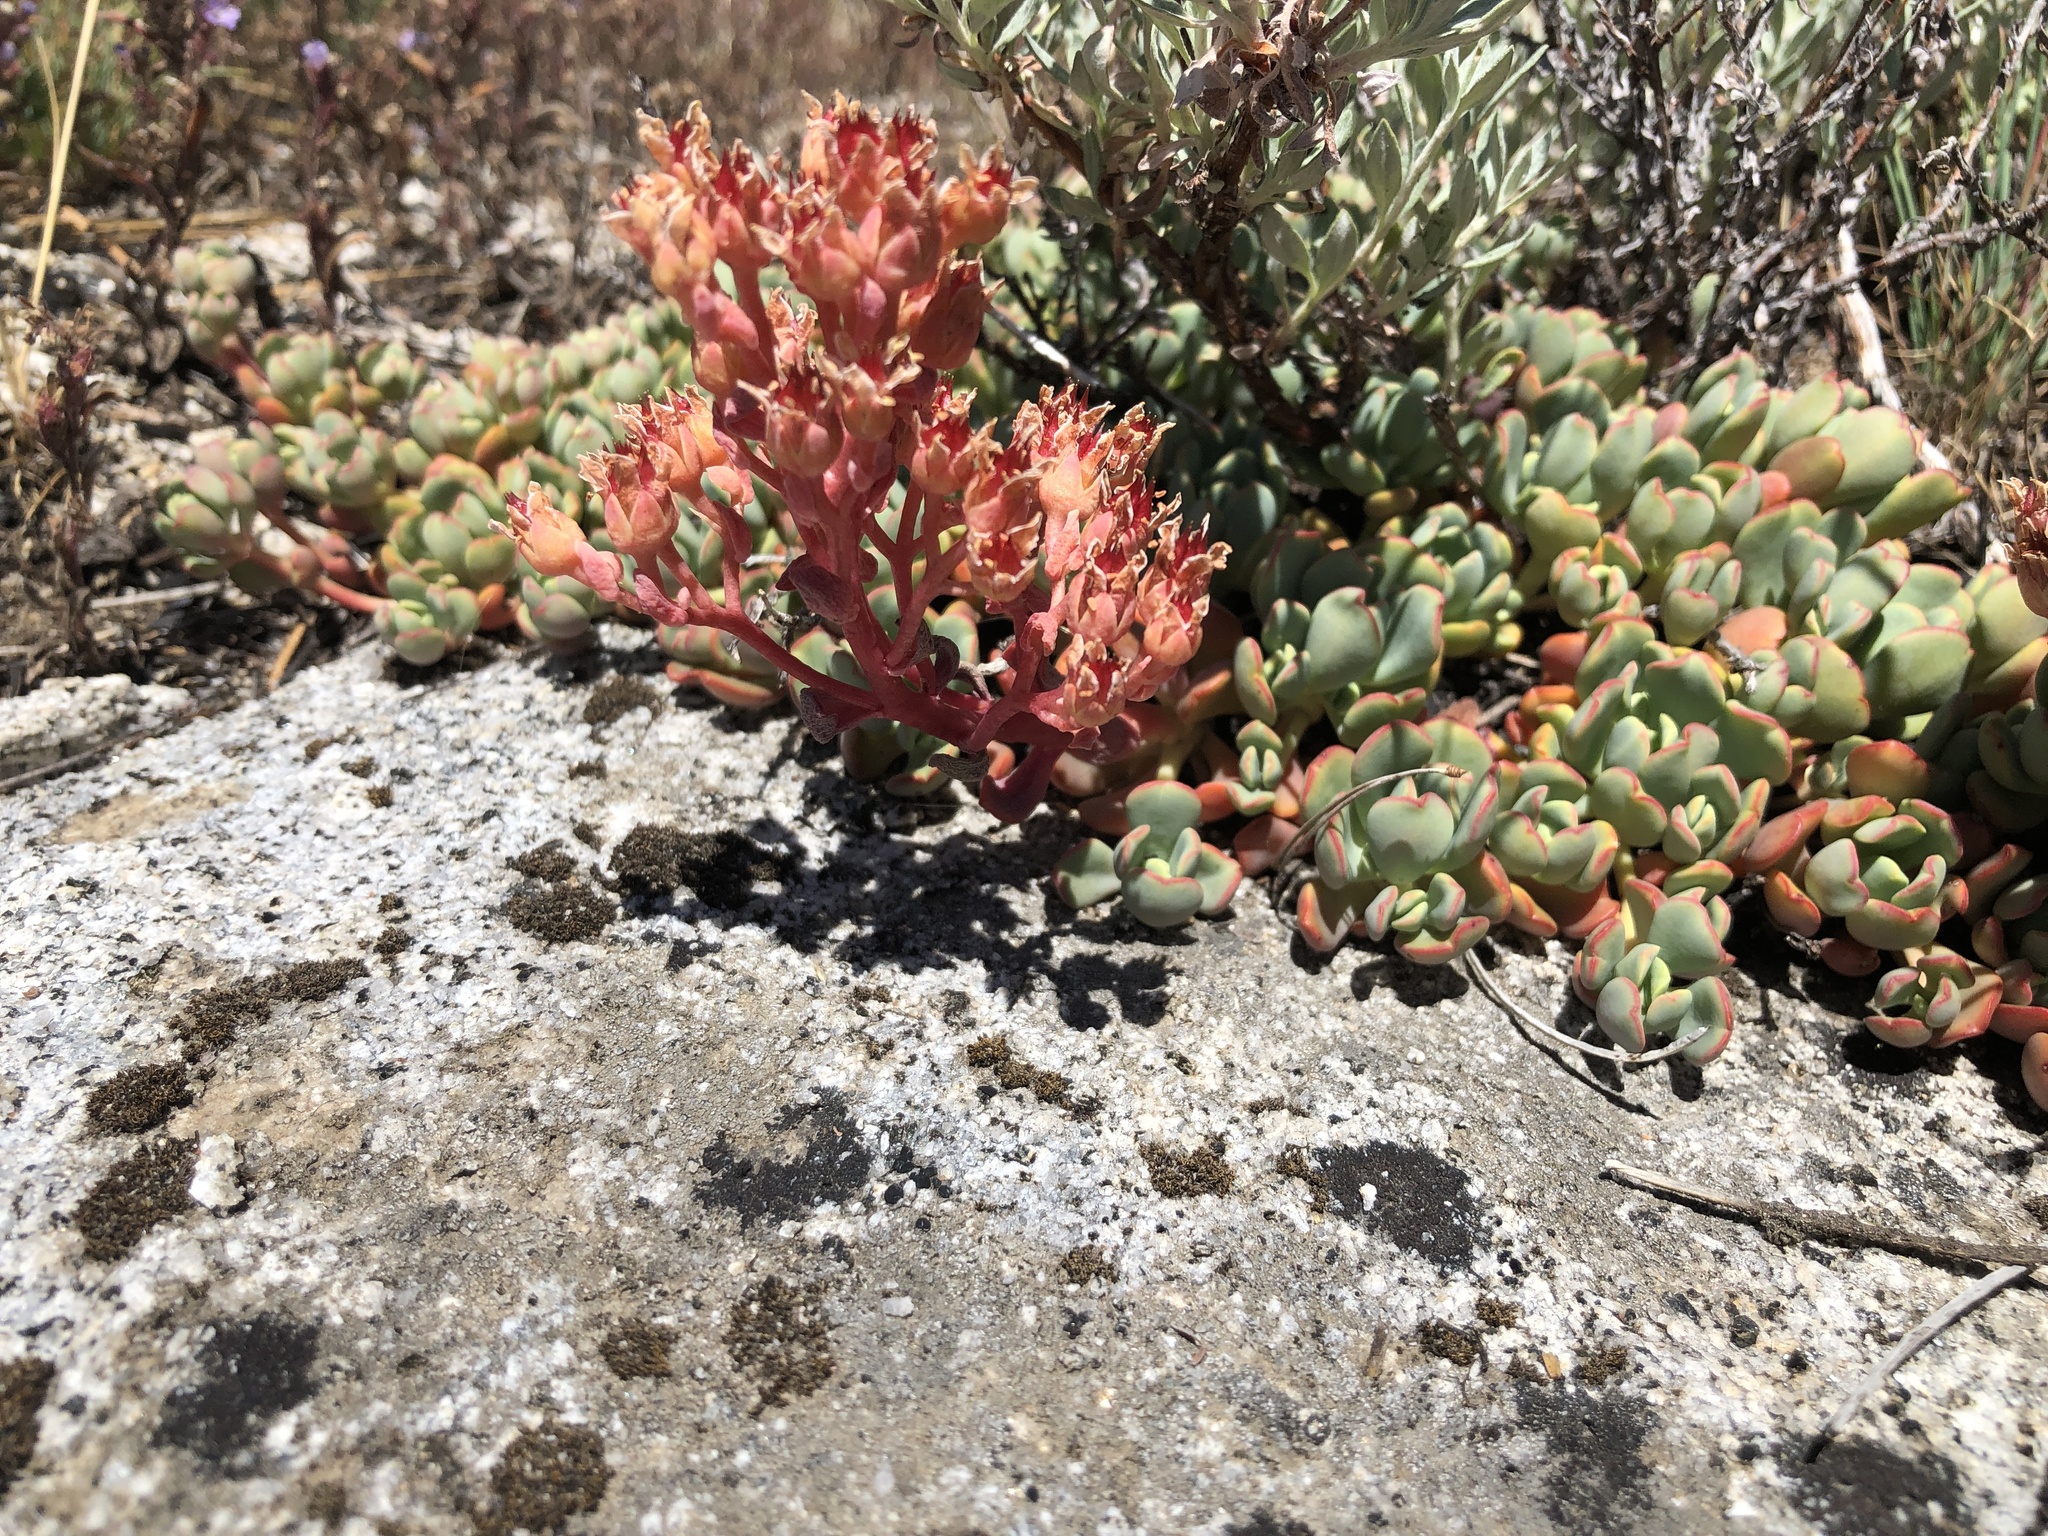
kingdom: Plantae
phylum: Tracheophyta
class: Magnoliopsida
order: Saxifragales
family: Crassulaceae
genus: Sedum
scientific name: Sedum obtusatum
